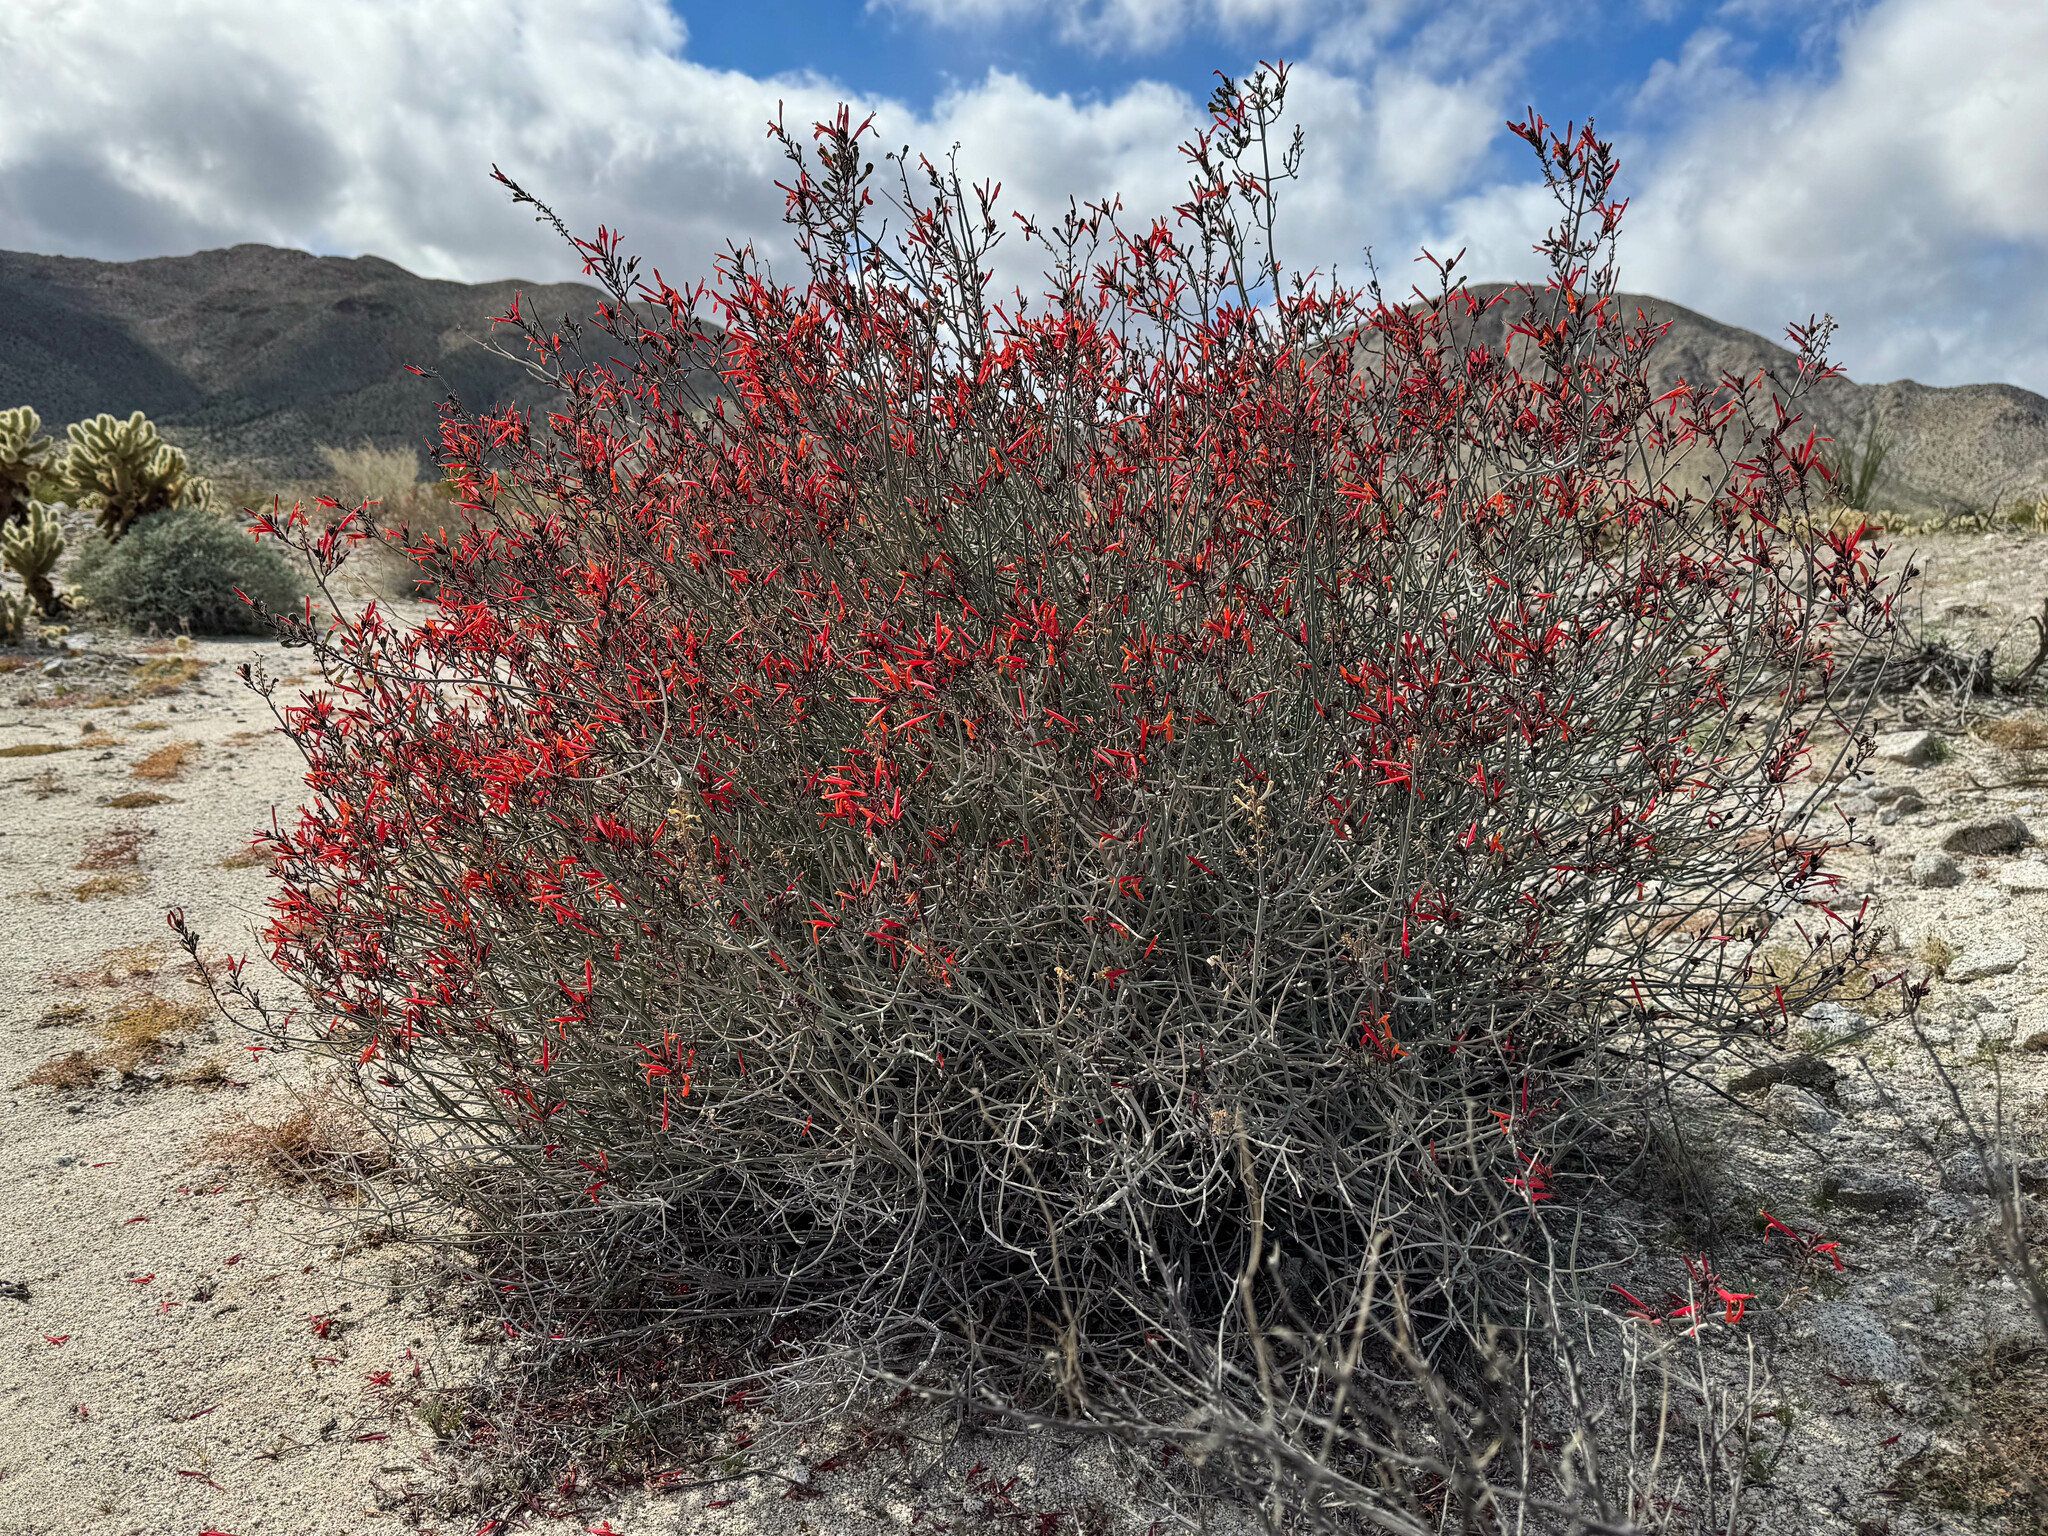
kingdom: Plantae
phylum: Tracheophyta
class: Magnoliopsida
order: Lamiales
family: Acanthaceae
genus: Justicia
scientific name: Justicia californica
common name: Chuparosa-honeysuckle
